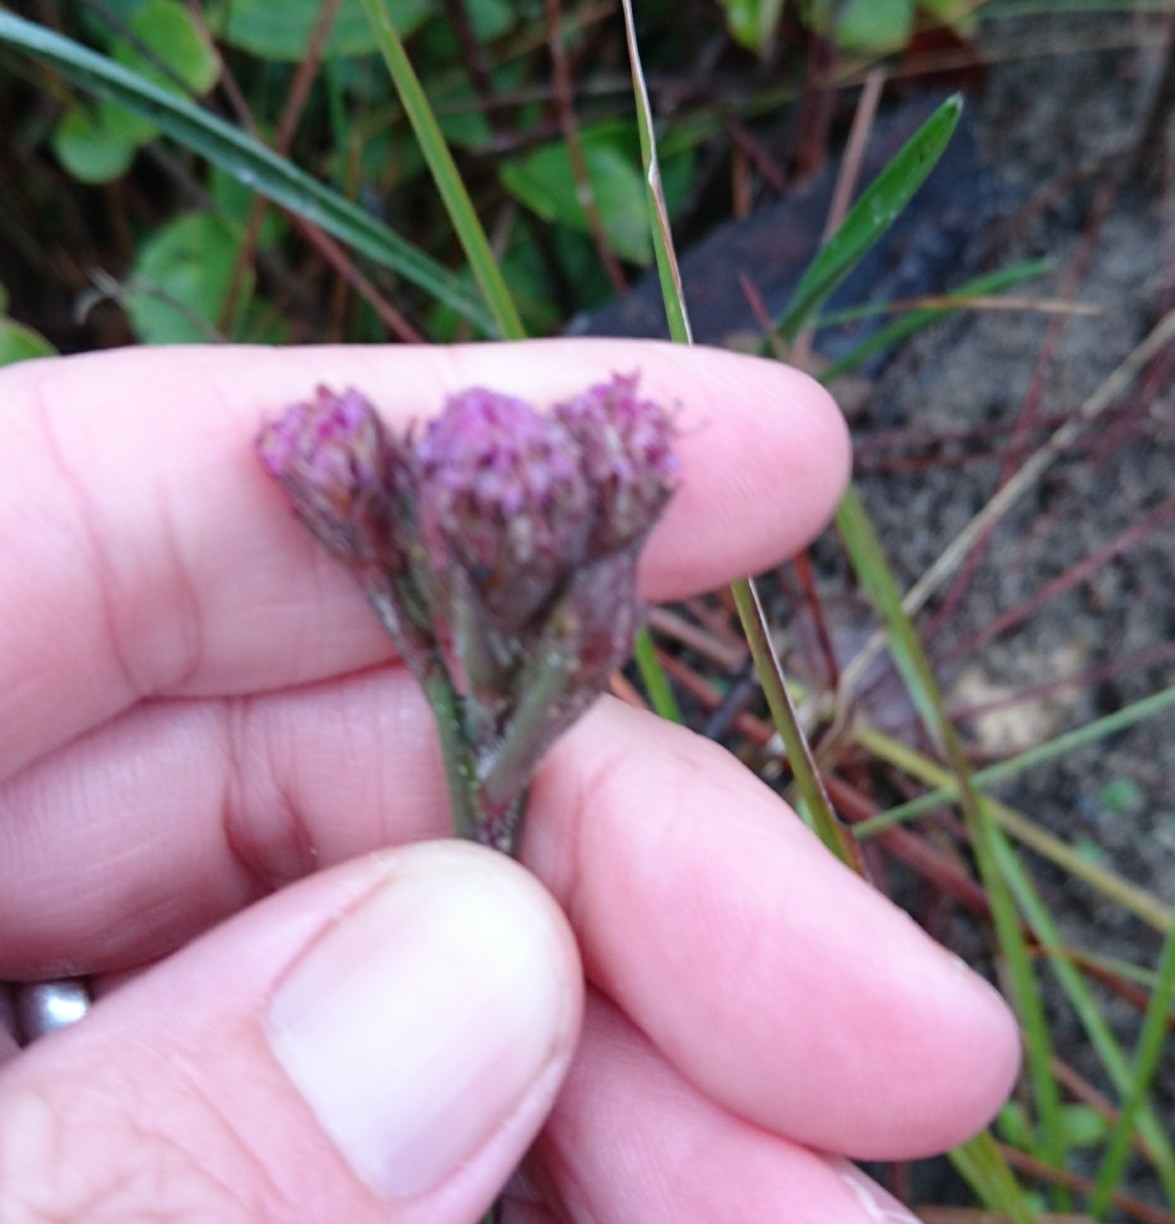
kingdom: Plantae
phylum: Tracheophyta
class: Magnoliopsida
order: Asterales
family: Asteraceae
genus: Carphephorus
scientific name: Carphephorus pseudoliatris
